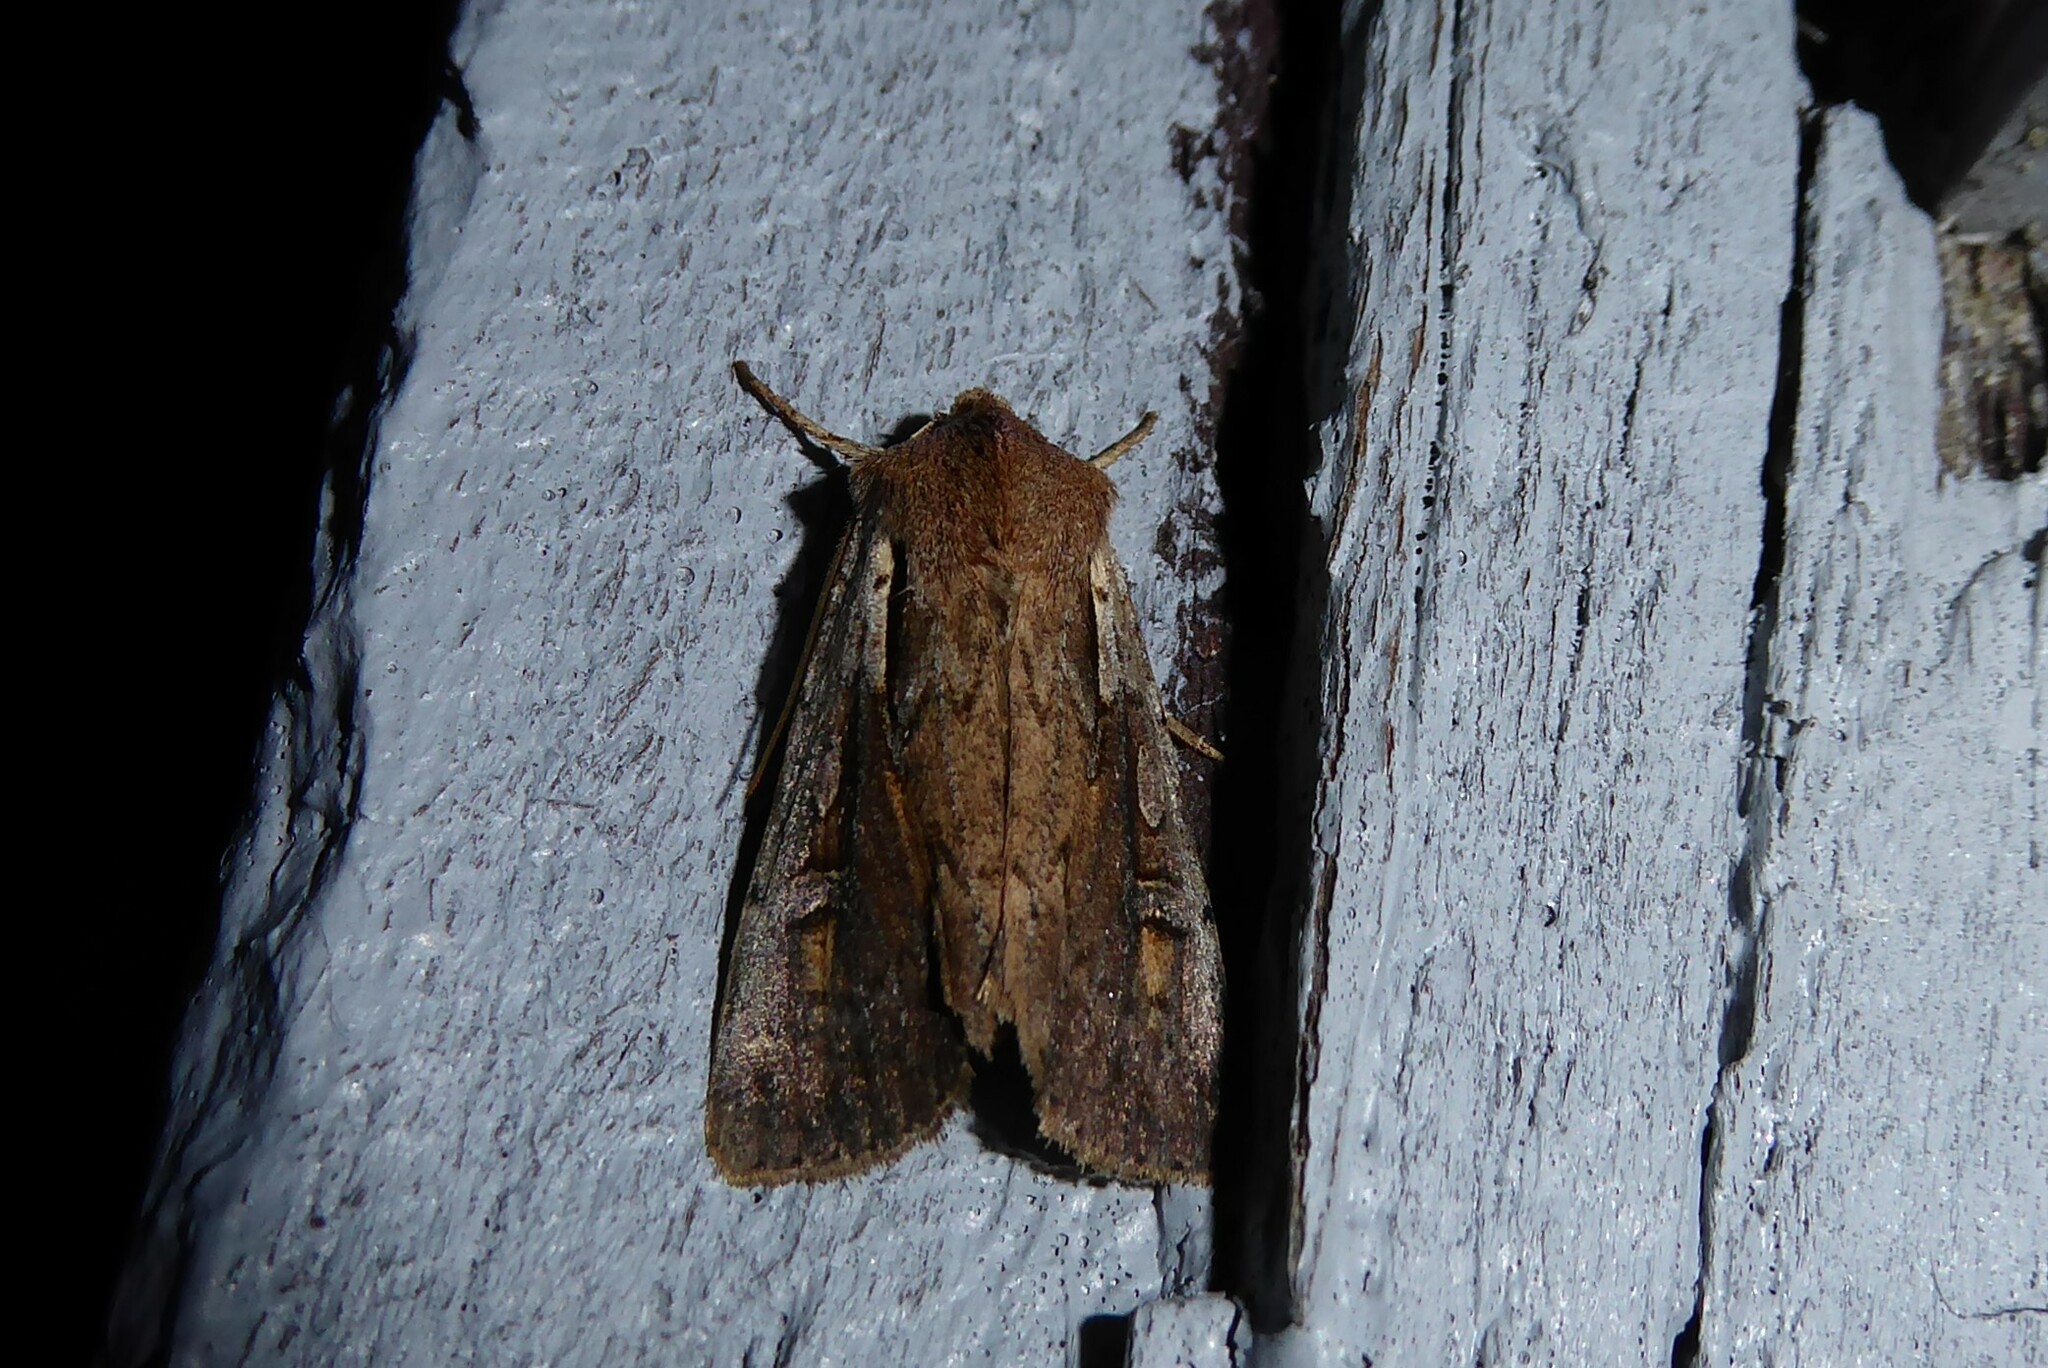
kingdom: Animalia
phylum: Arthropoda
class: Insecta
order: Lepidoptera
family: Noctuidae
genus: Ichneutica
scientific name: Ichneutica atristriga
